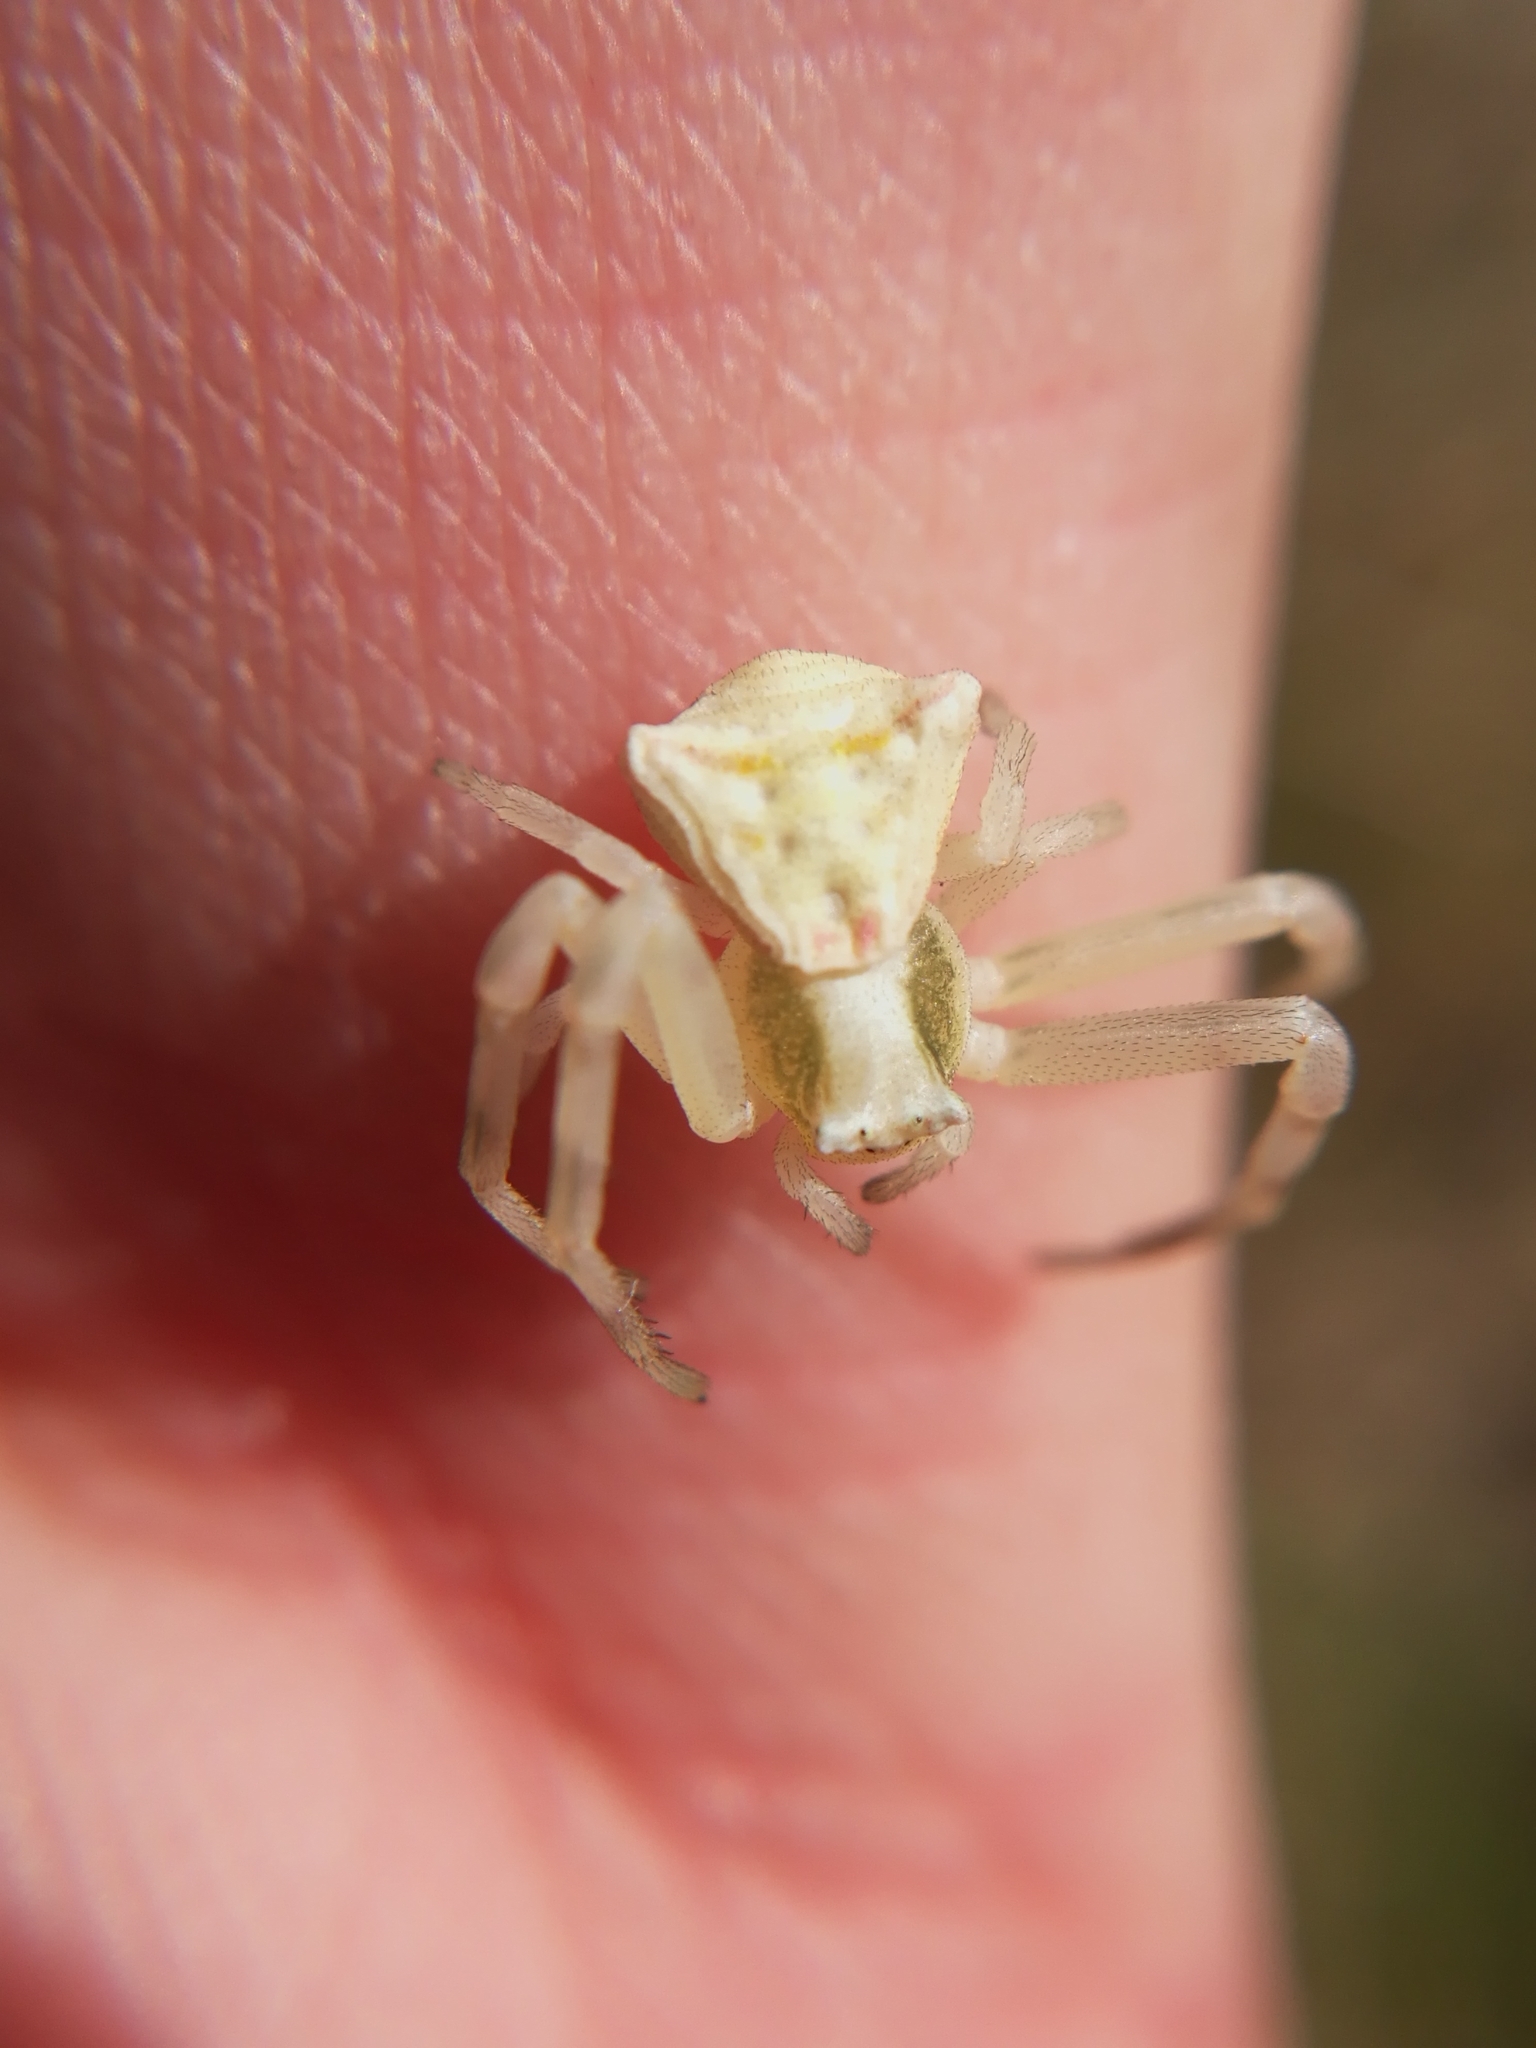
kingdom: Animalia
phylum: Arthropoda
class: Arachnida
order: Araneae
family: Thomisidae
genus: Thomisus
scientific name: Thomisus onustus
